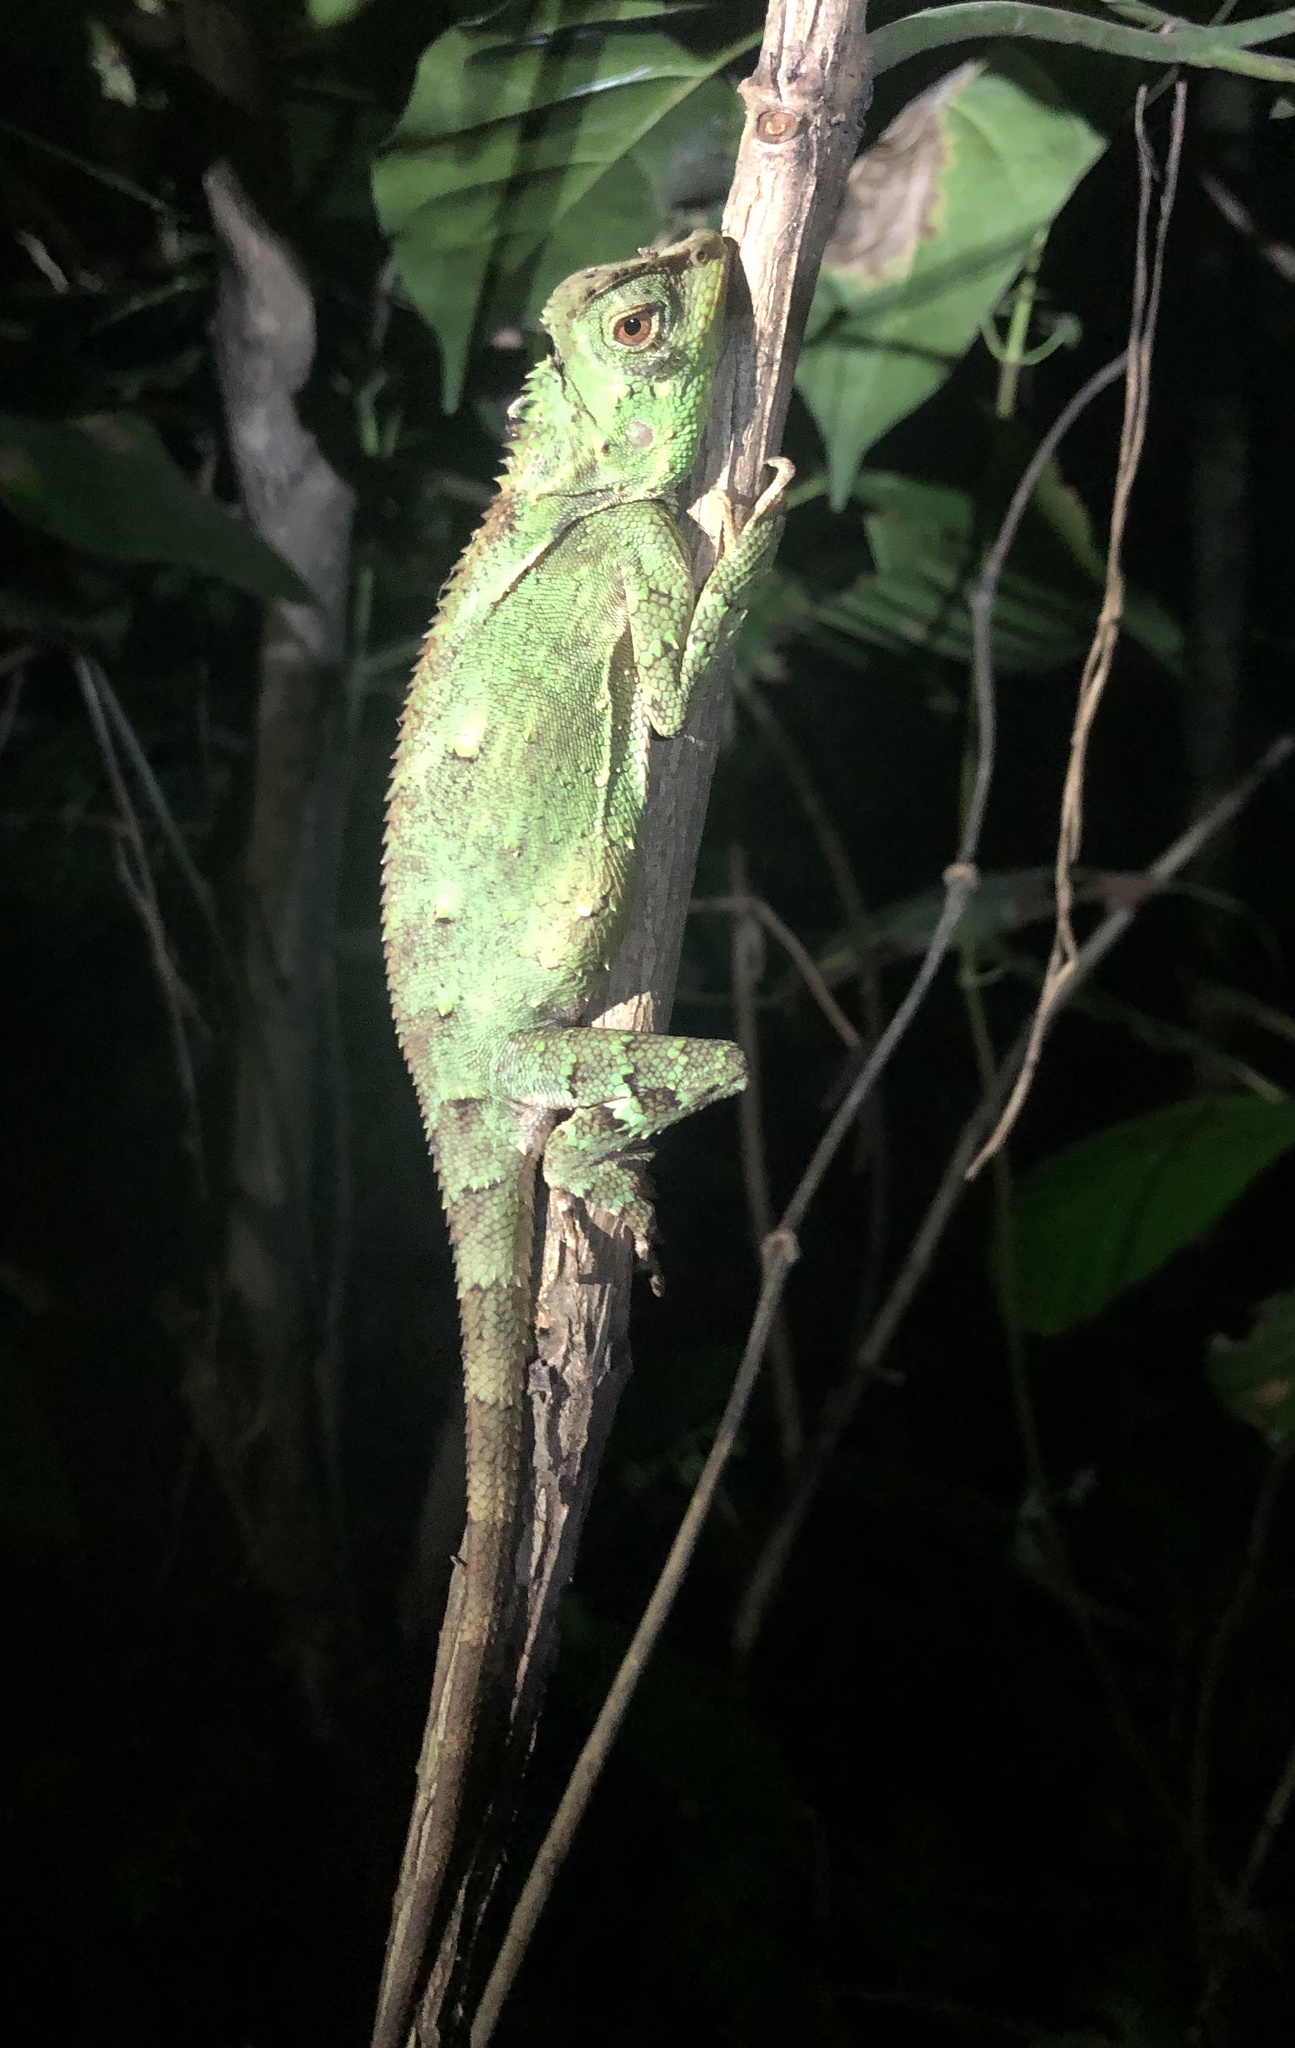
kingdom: Animalia
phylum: Chordata
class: Squamata
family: Agamidae
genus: Gonocephalus
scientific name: Gonocephalus kuhlii
